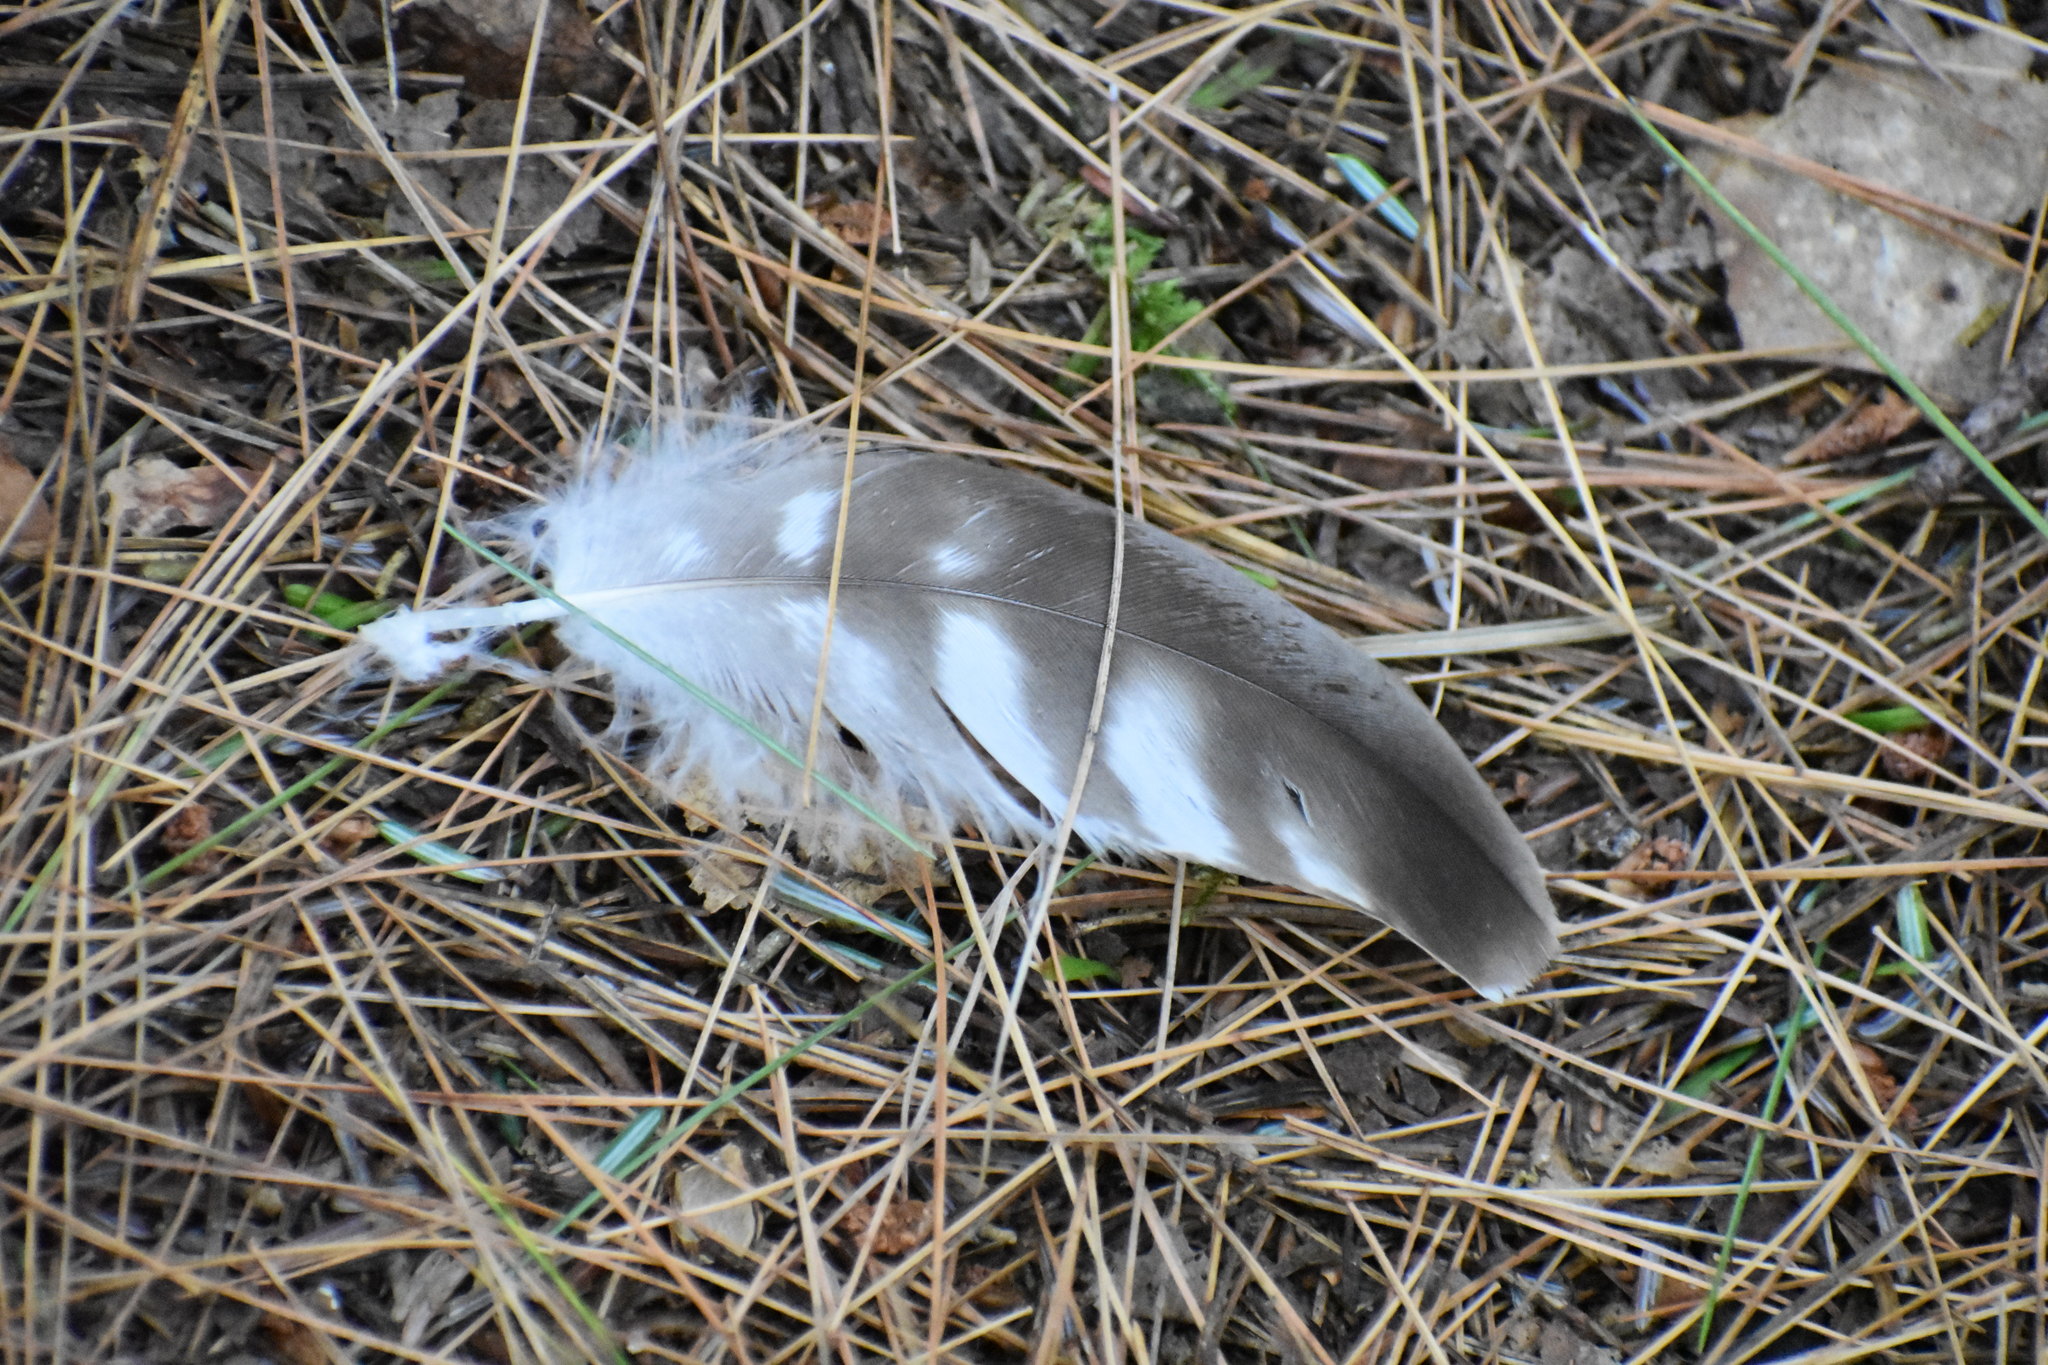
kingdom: Animalia
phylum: Chordata
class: Aves
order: Accipitriformes
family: Accipitridae
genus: Buteo
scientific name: Buteo jamaicensis
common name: Red-tailed hawk
